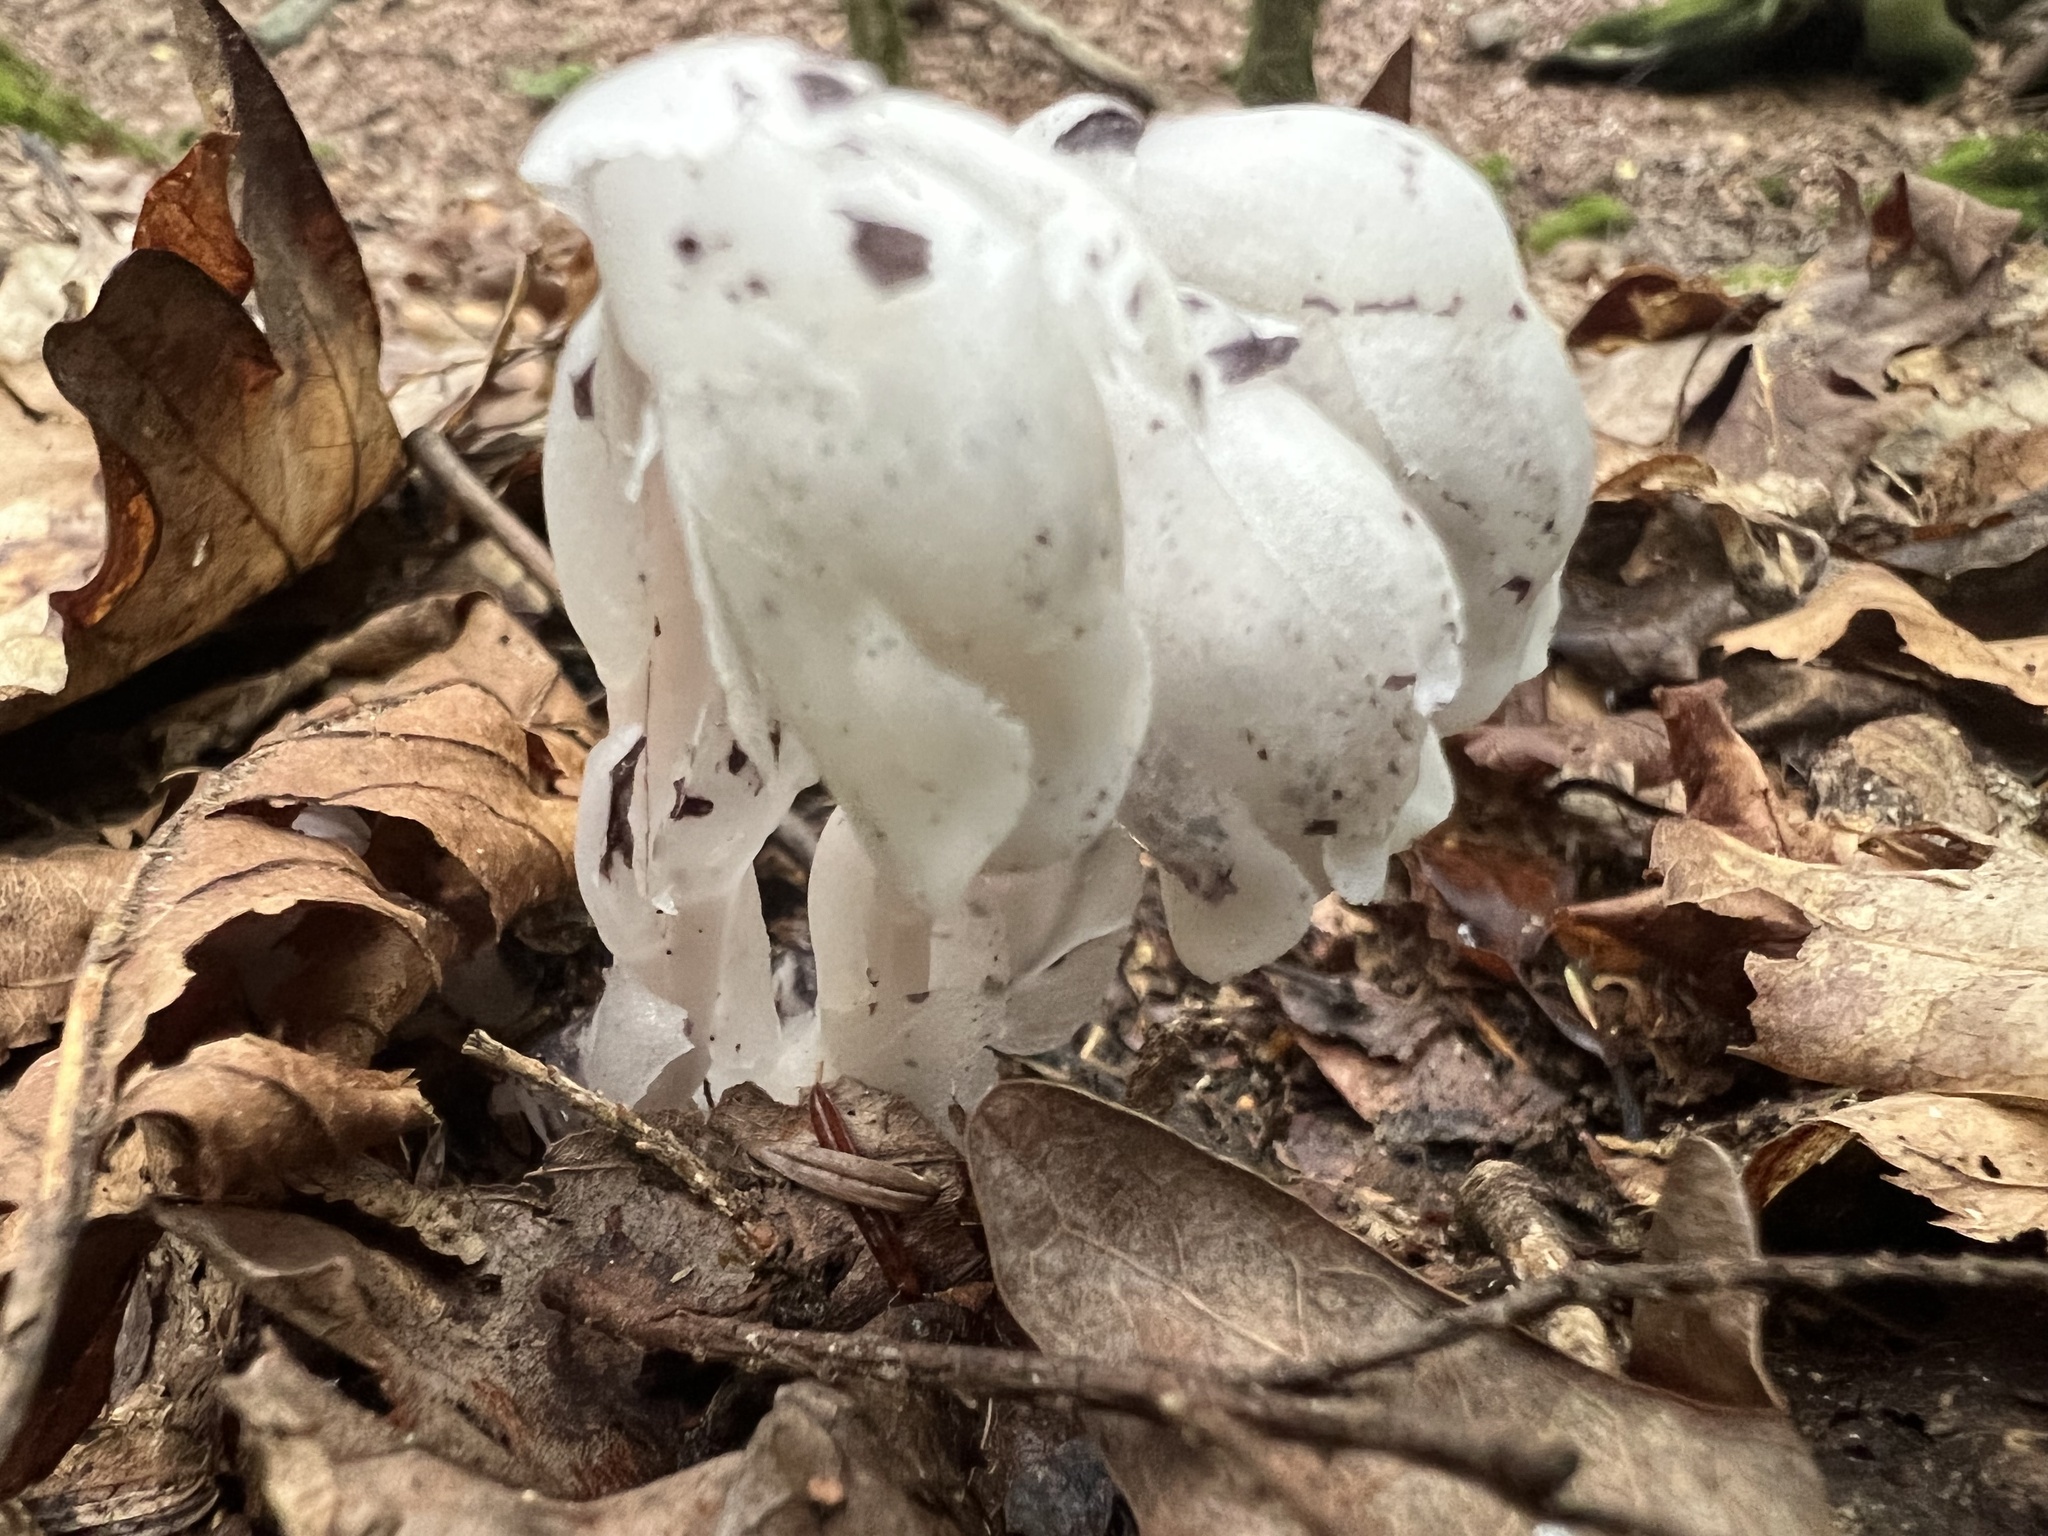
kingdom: Plantae
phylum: Tracheophyta
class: Magnoliopsida
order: Ericales
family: Ericaceae
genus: Monotropa
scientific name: Monotropa uniflora
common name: Convulsion root
